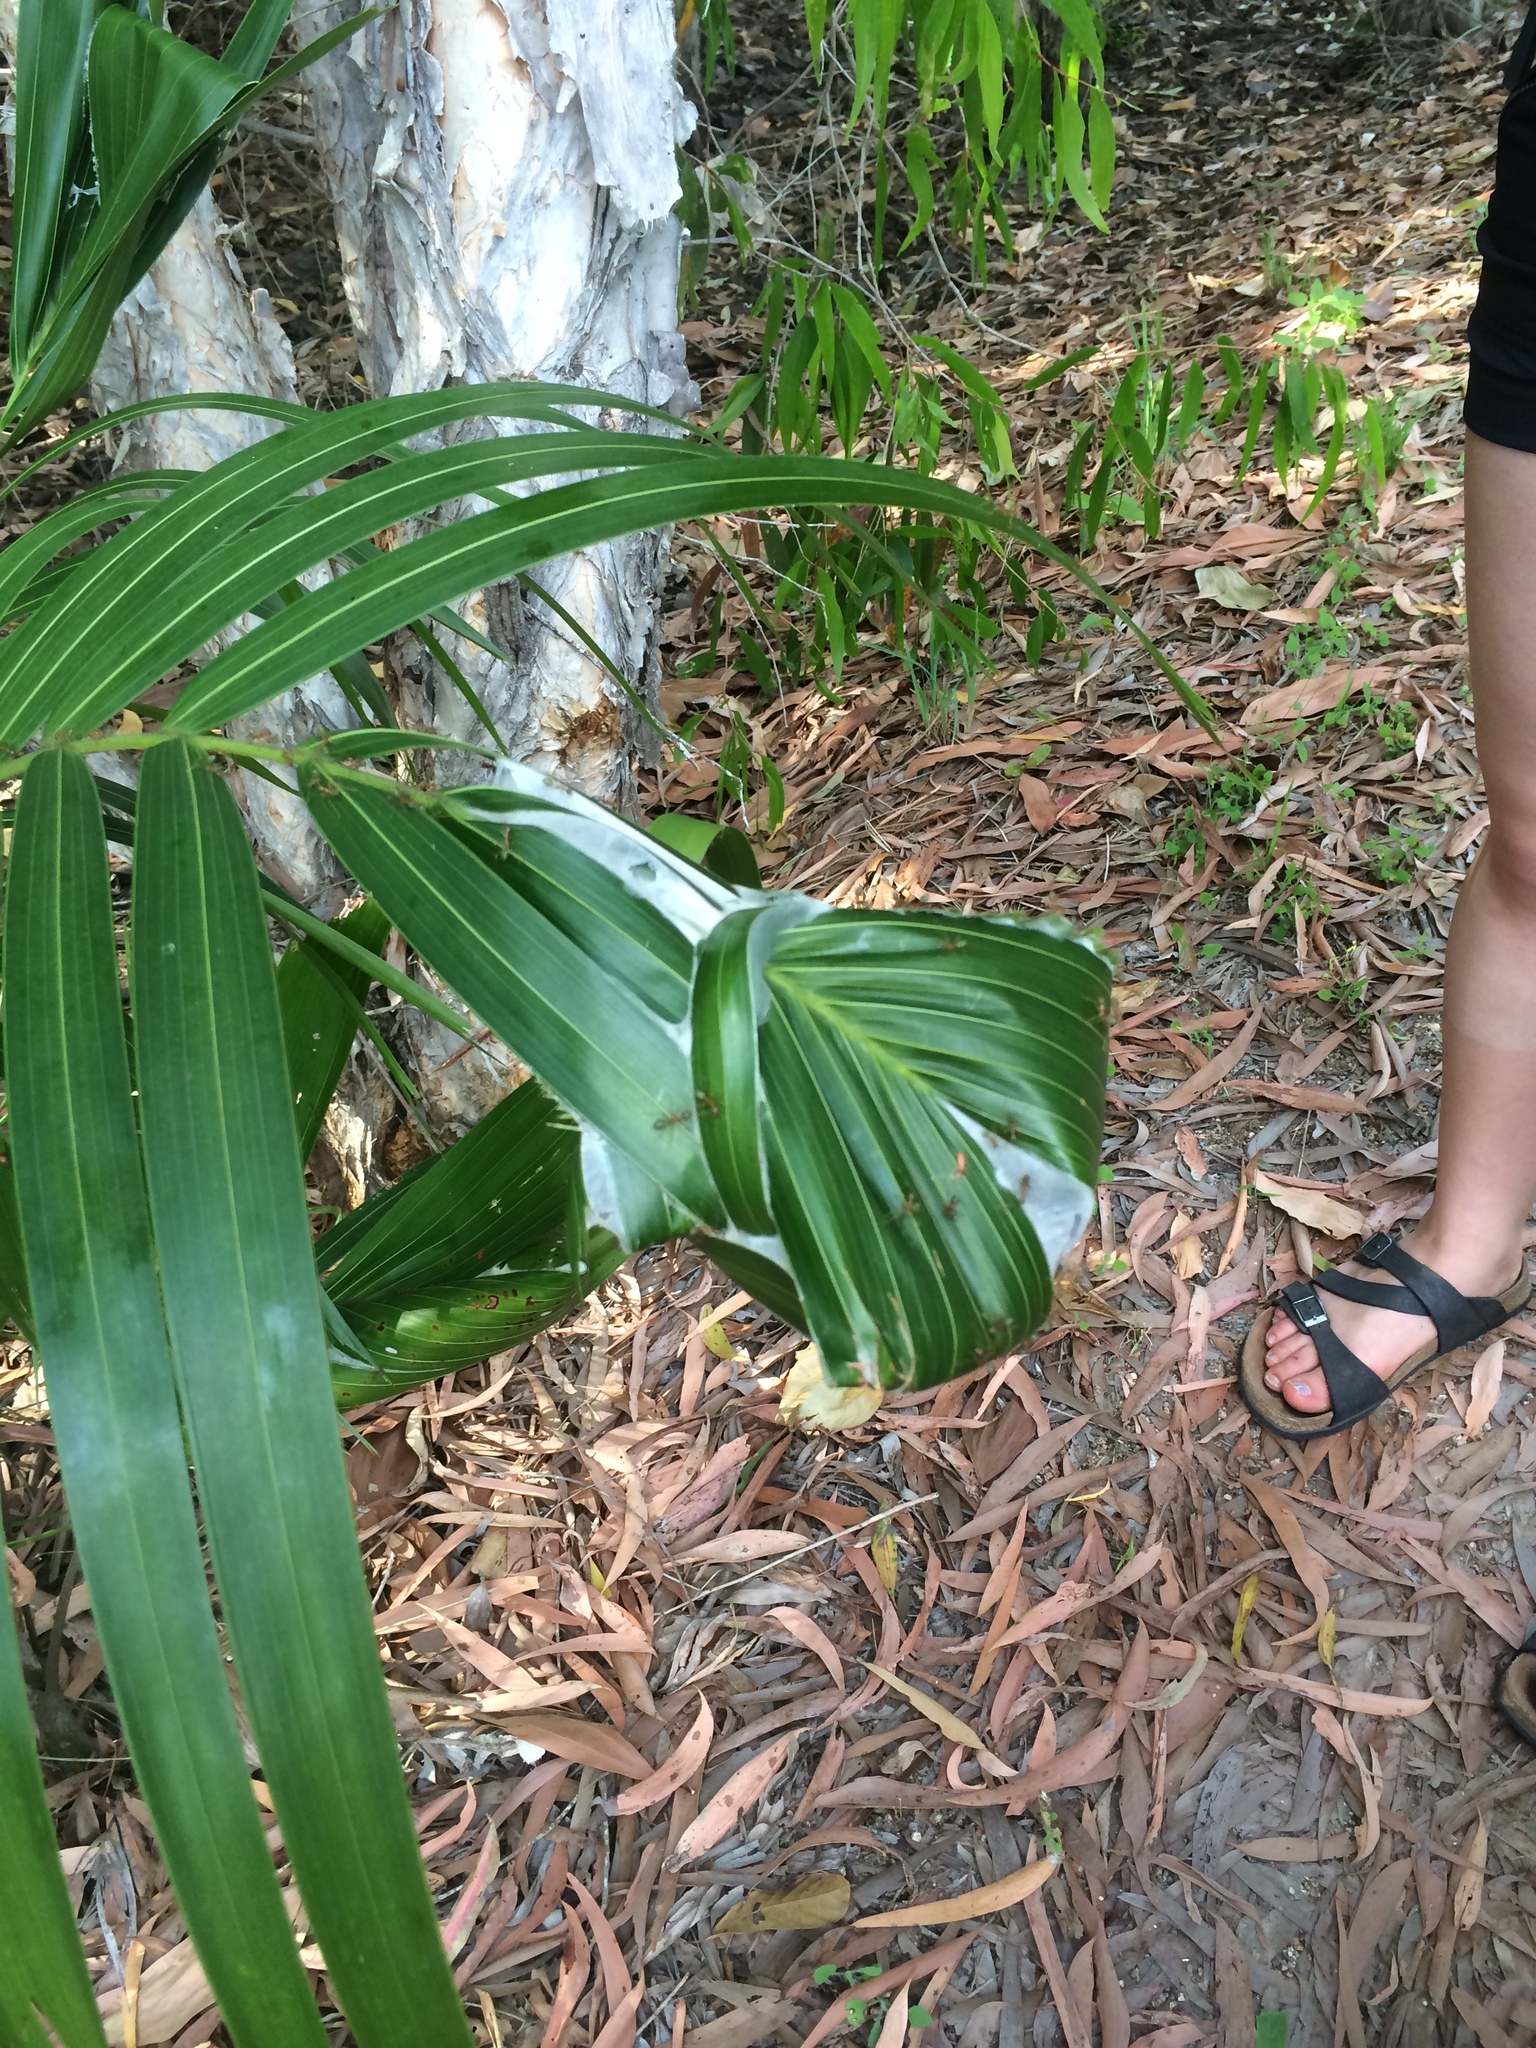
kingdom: Animalia
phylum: Arthropoda
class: Insecta
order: Hymenoptera
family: Formicidae
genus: Oecophylla
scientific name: Oecophylla smaragdina
